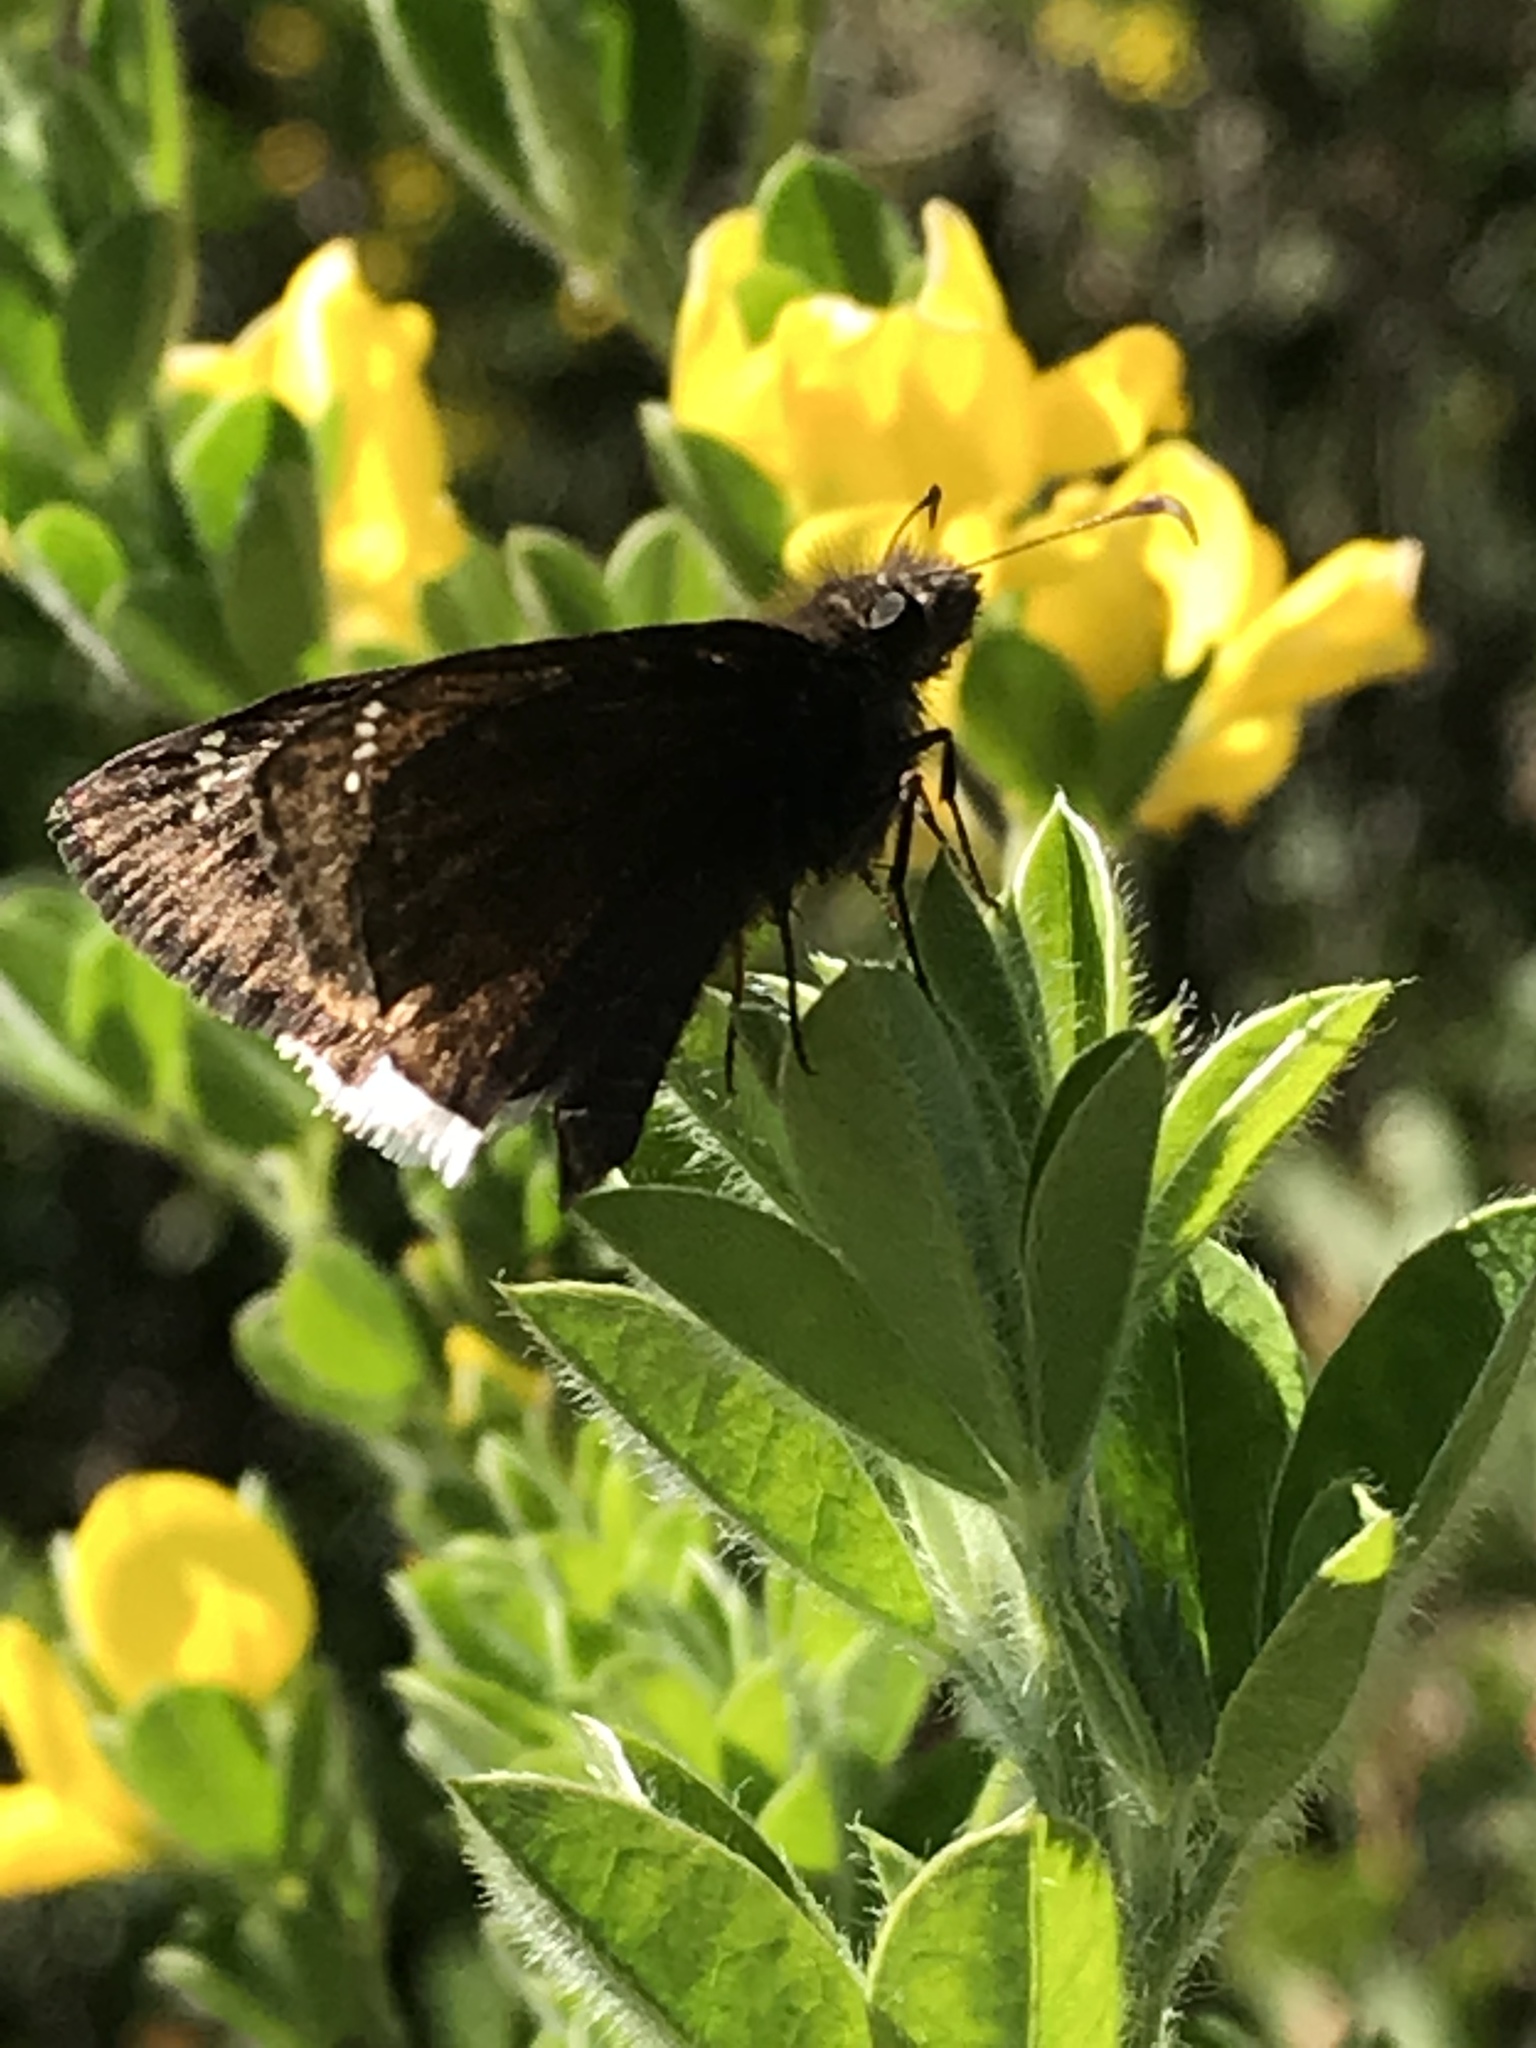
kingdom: Animalia
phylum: Arthropoda
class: Insecta
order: Lepidoptera
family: Hesperiidae
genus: Erynnis
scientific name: Erynnis tristis
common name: Mournful duskywing
